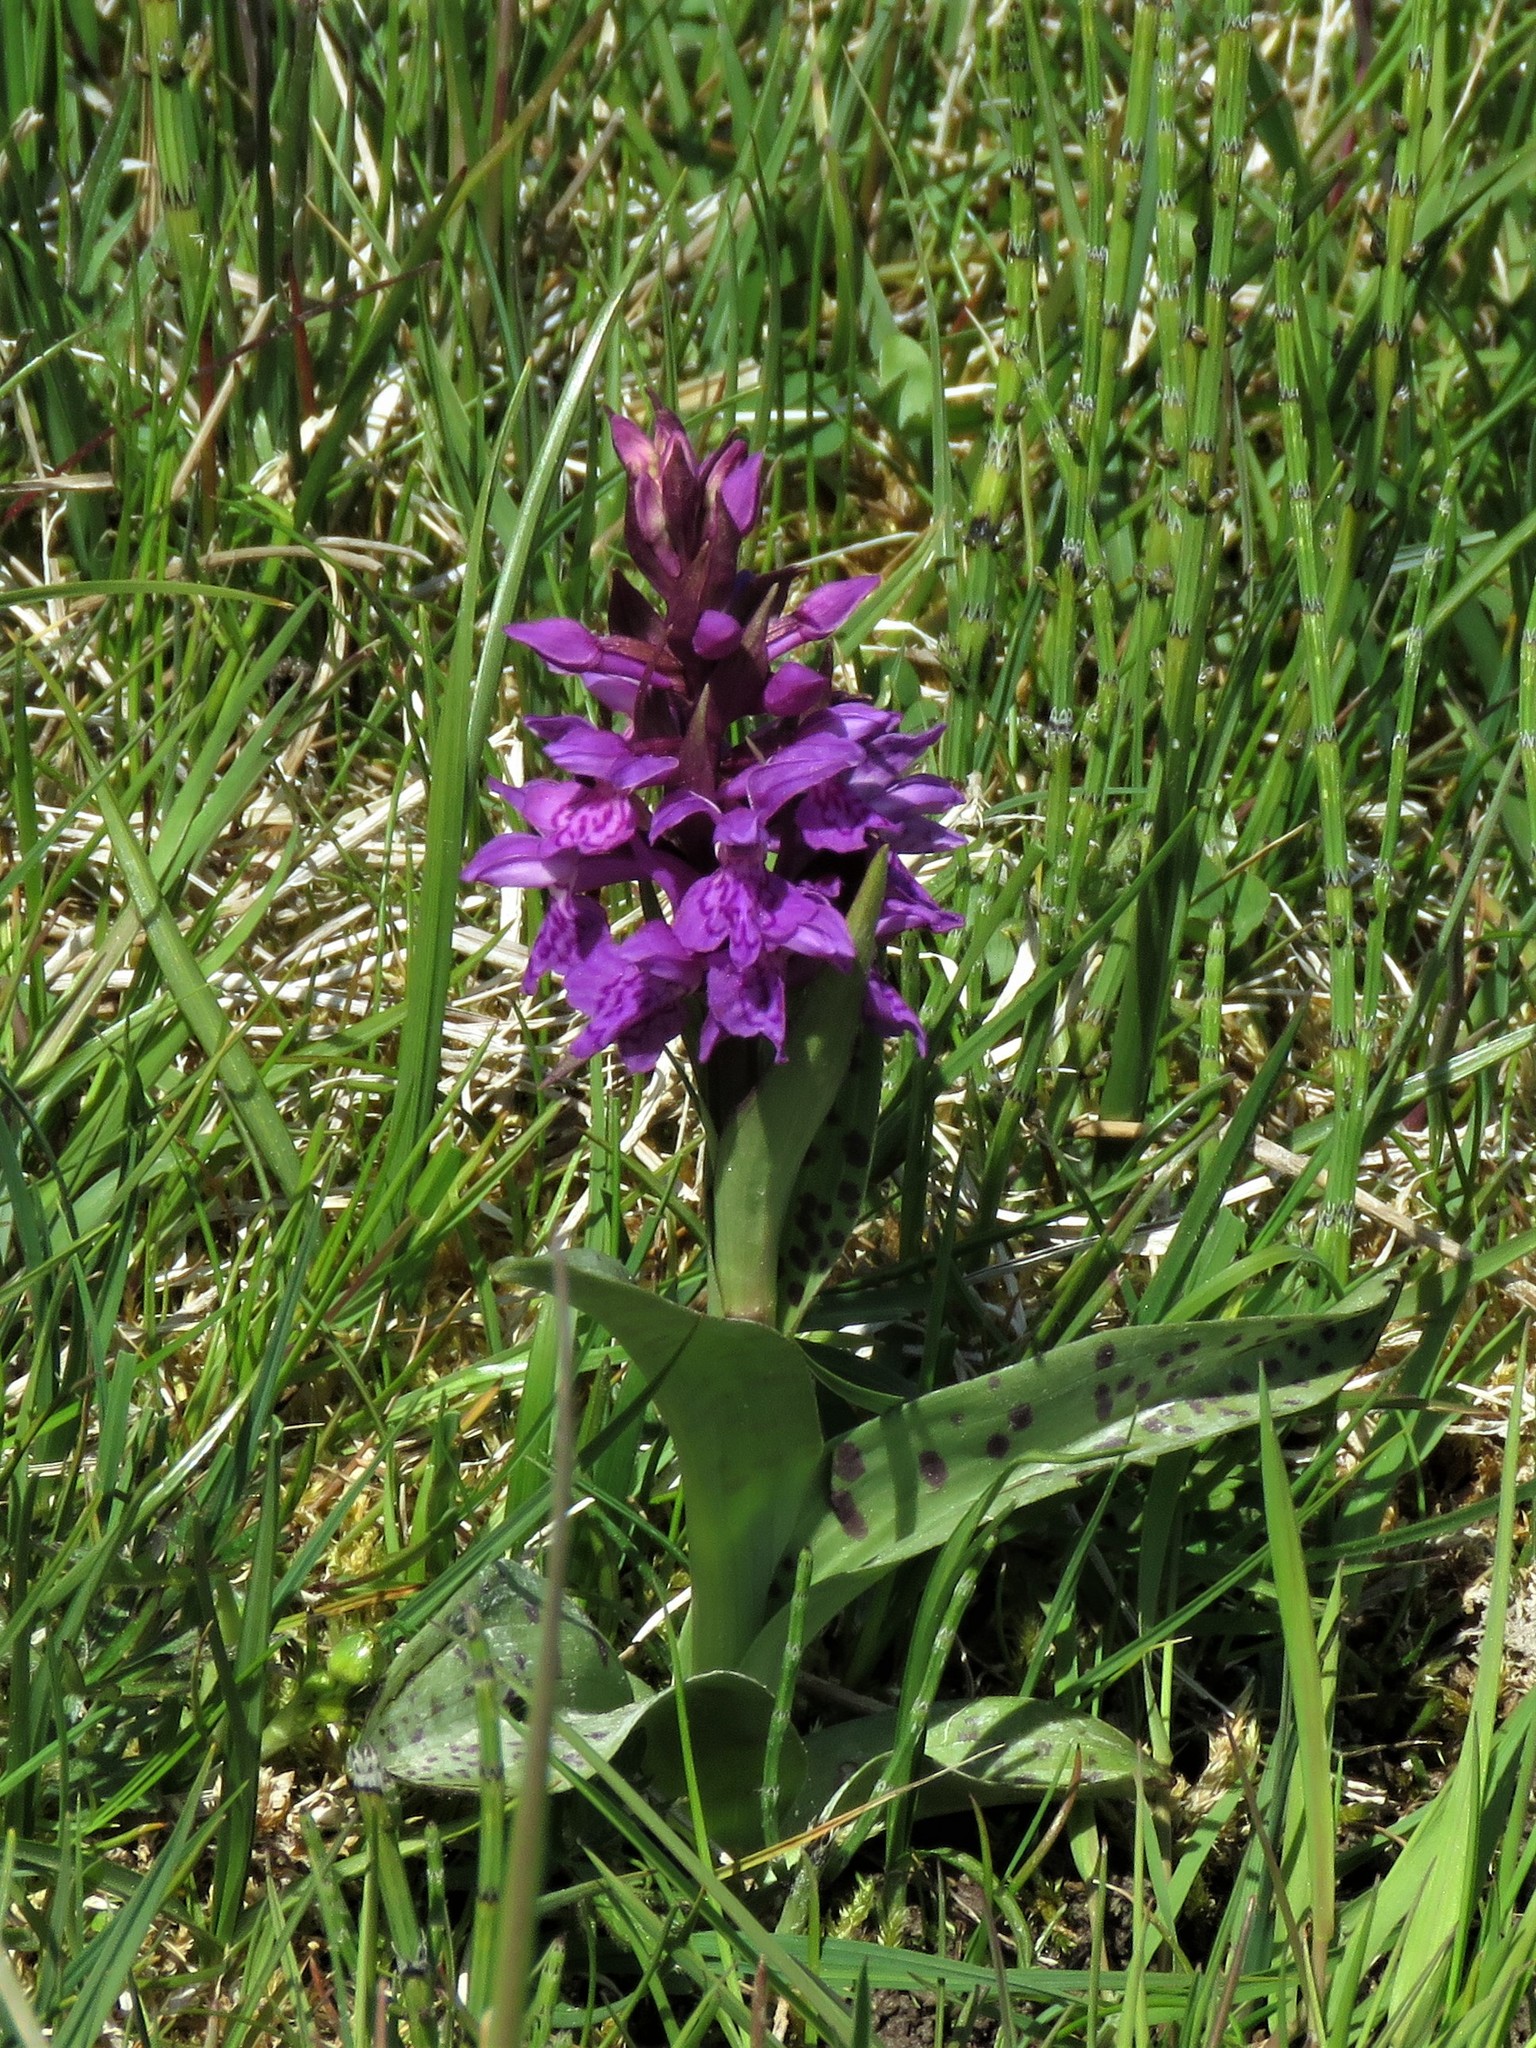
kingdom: Plantae
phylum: Tracheophyta
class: Liliopsida
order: Asparagales
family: Orchidaceae
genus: Dactylorhiza
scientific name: Dactylorhiza majalis
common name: Marsh orchid
